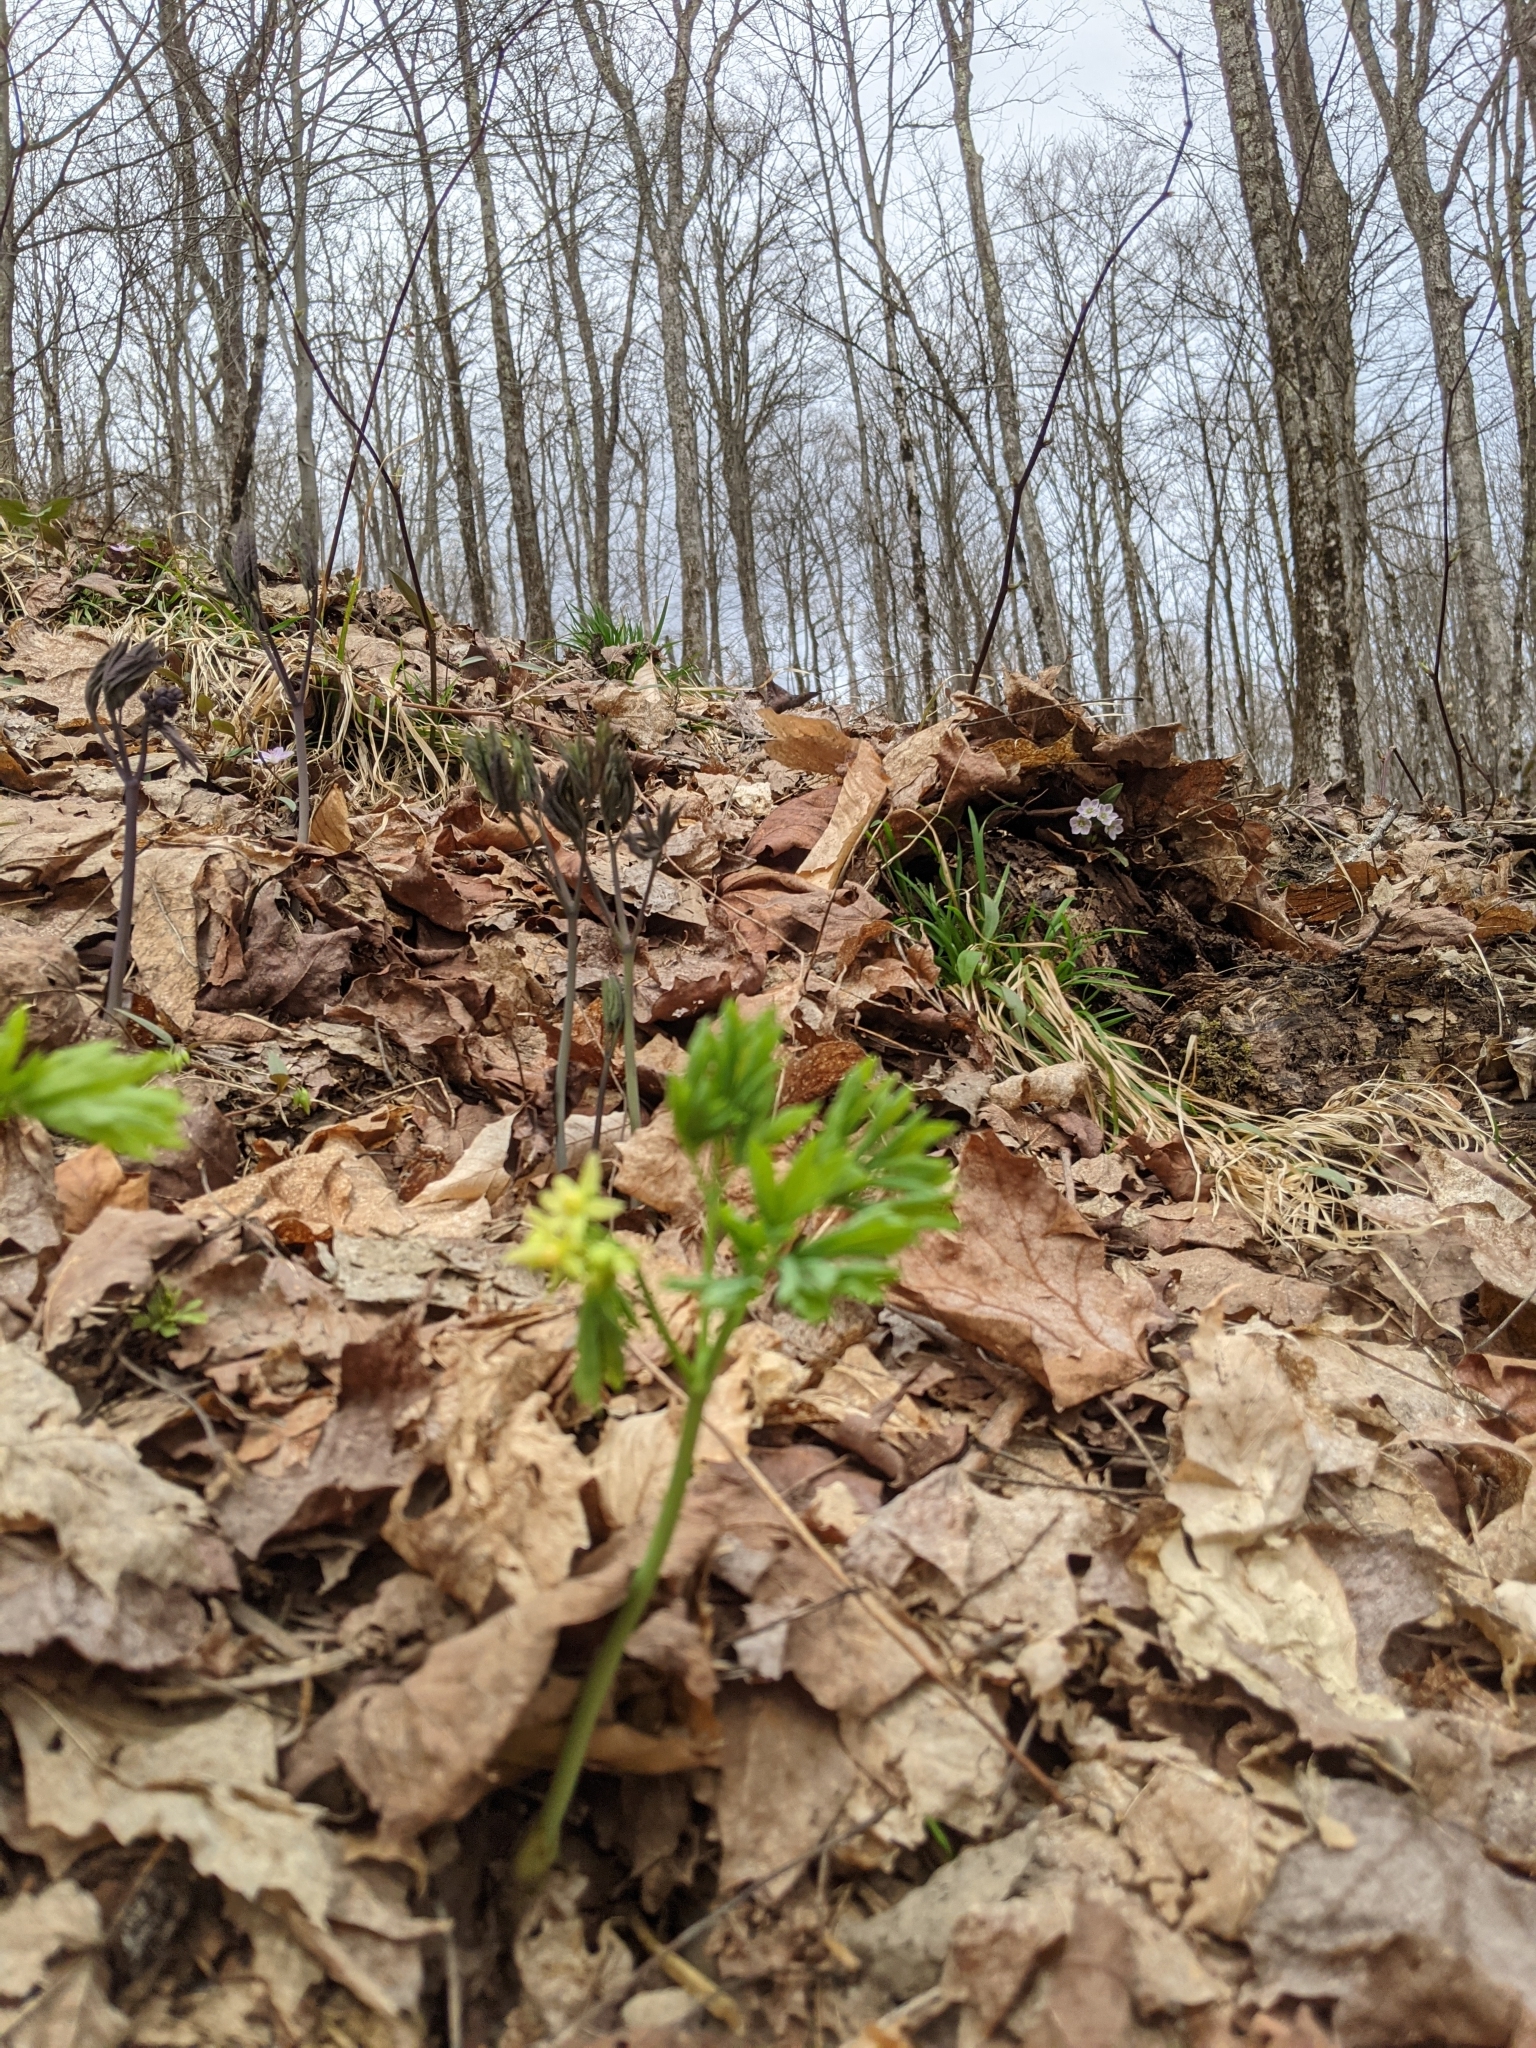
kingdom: Plantae
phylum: Tracheophyta
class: Magnoliopsida
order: Ranunculales
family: Berberidaceae
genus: Caulophyllum
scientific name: Caulophyllum thalictroides
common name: Blue cohosh
